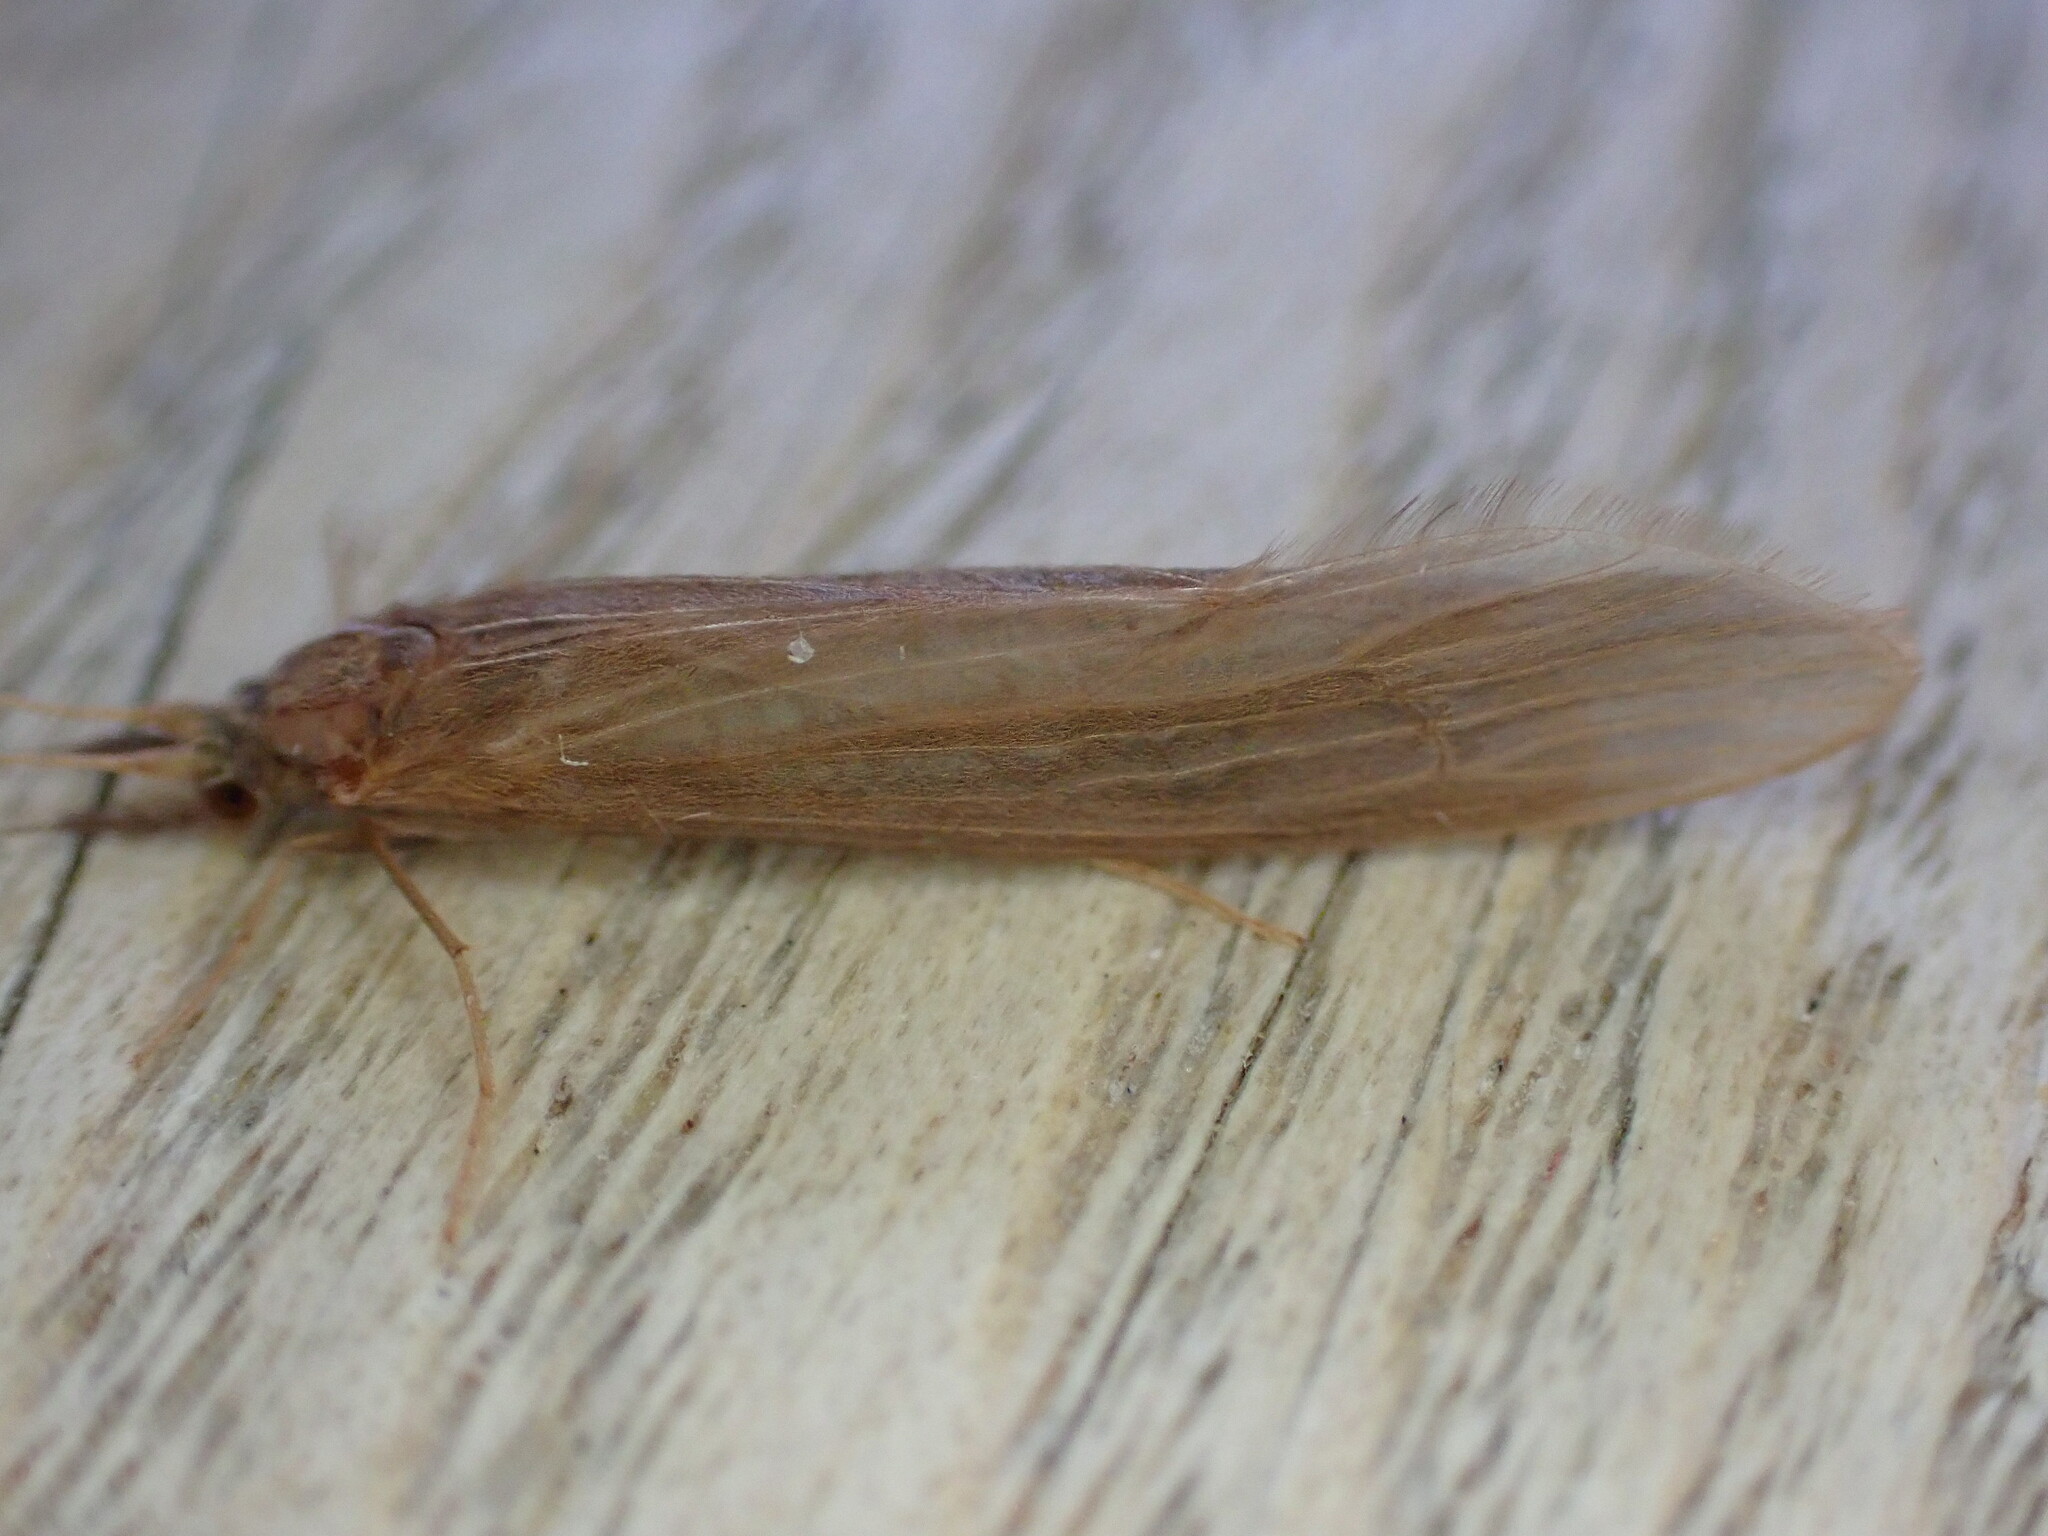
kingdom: Animalia
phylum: Arthropoda
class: Insecta
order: Trichoptera
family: Leptoceridae
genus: Oecetis
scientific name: Oecetis ochracea
